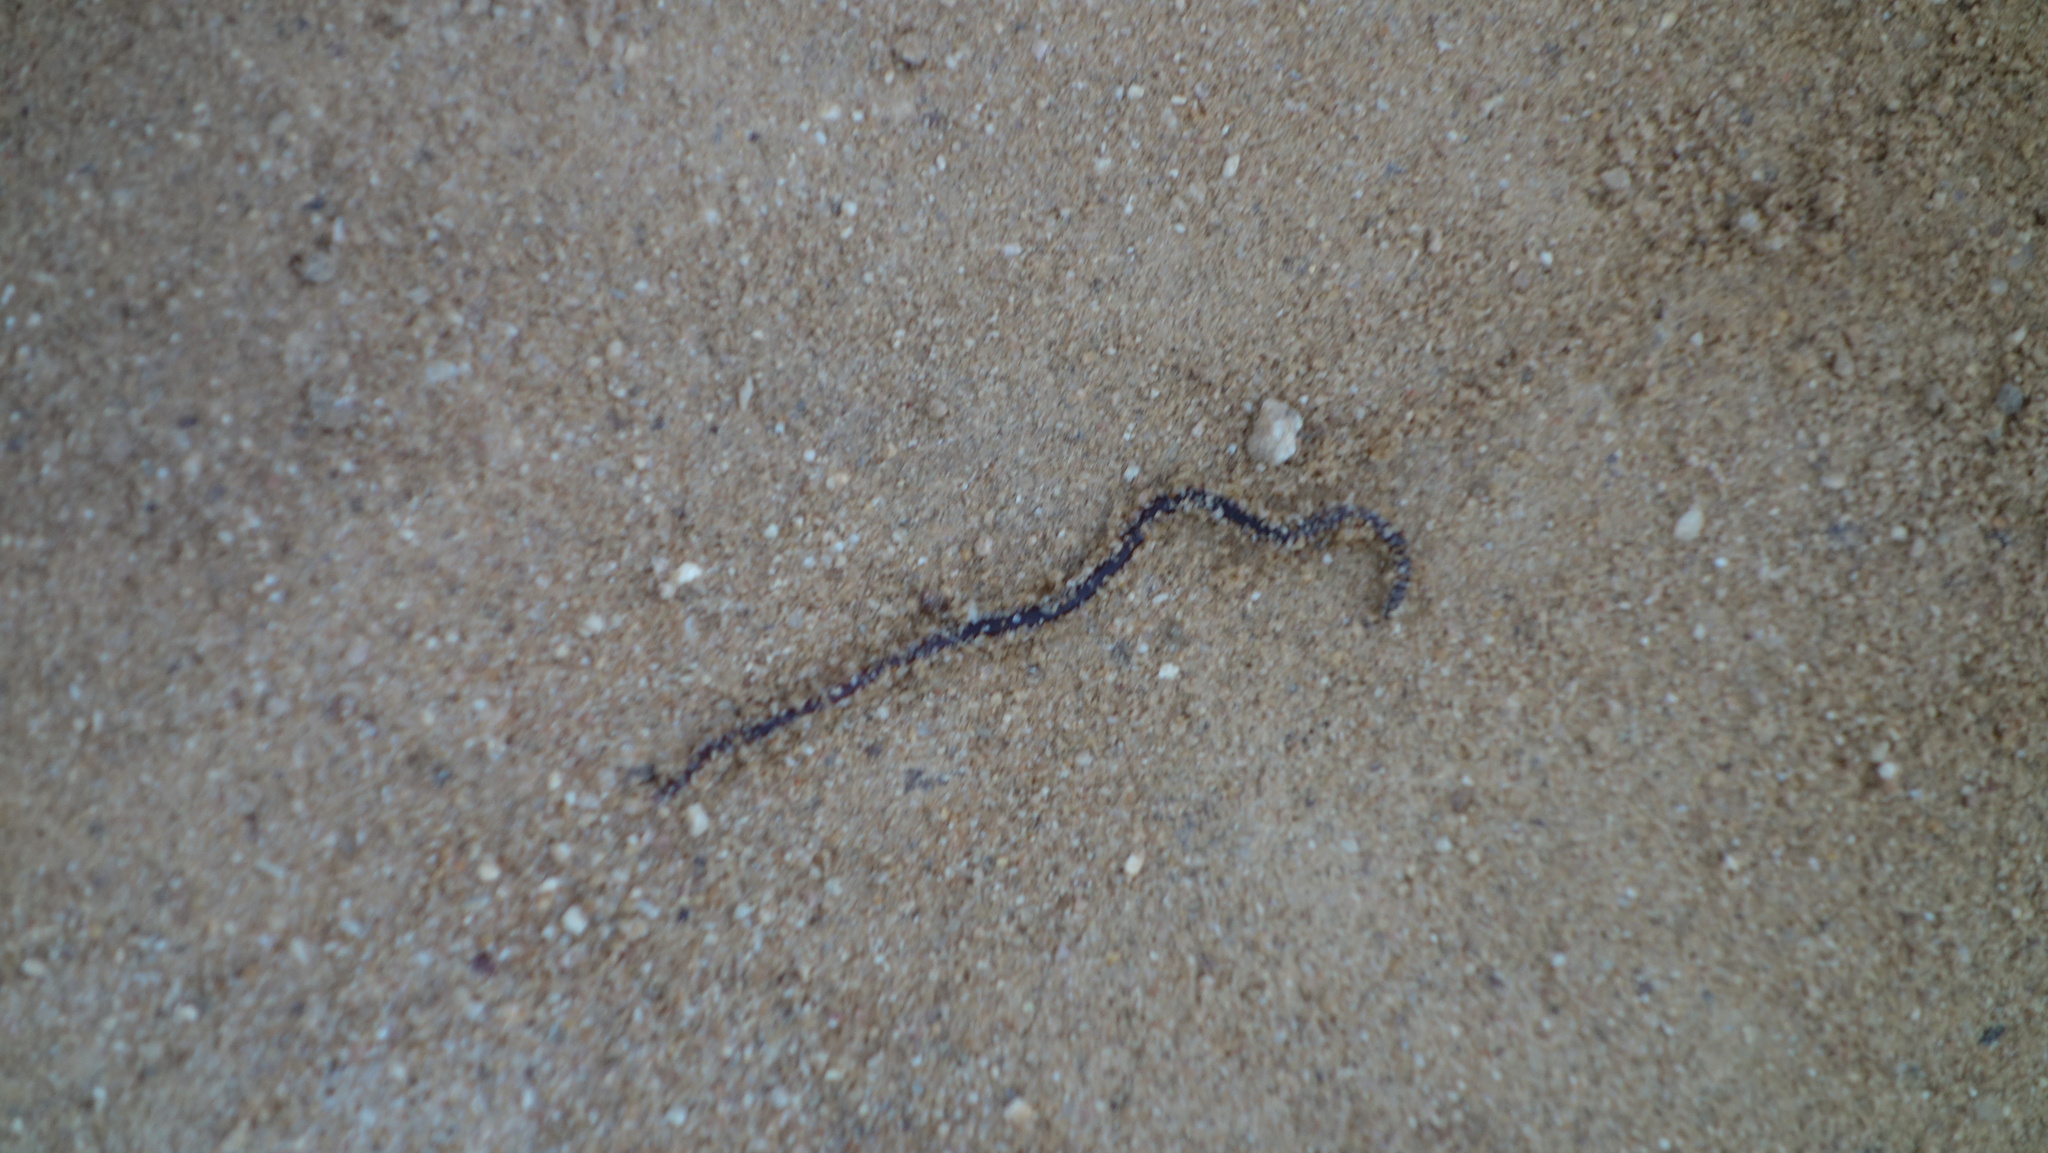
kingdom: Animalia
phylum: Chordata
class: Squamata
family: Typhlopidae
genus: Indotyphlops
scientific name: Indotyphlops braminus
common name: Brahminy blindsnake
